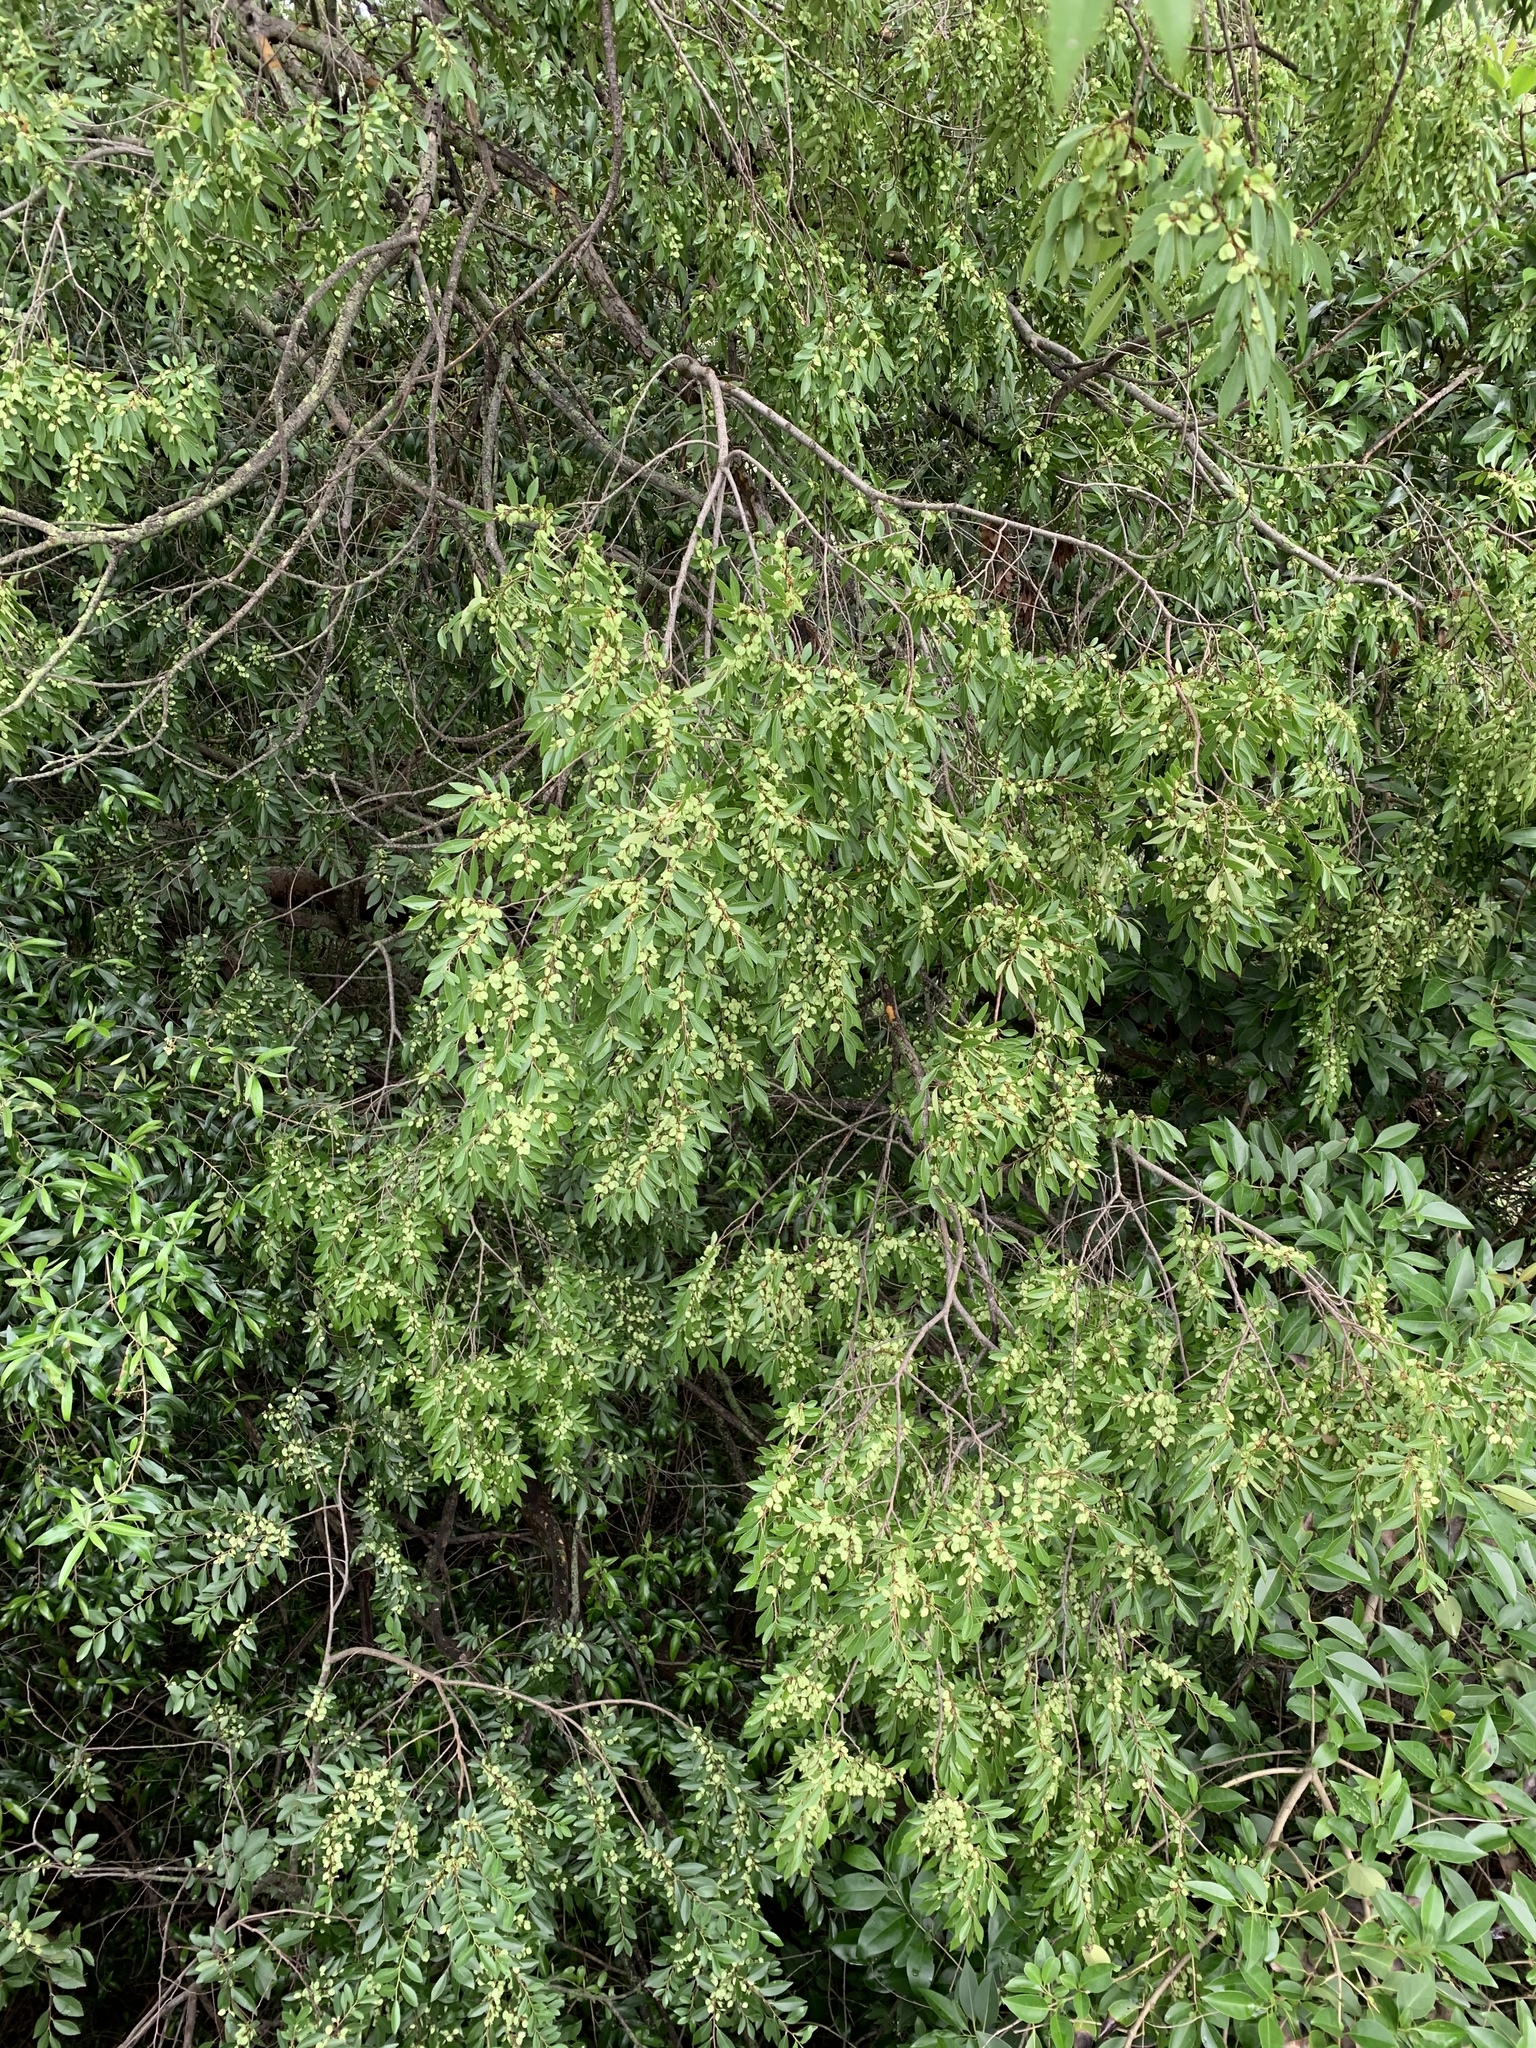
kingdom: Plantae
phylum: Tracheophyta
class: Magnoliopsida
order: Rosales
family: Ulmaceae
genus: Ulmus
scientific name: Ulmus parvifolia
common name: Chinese elm
